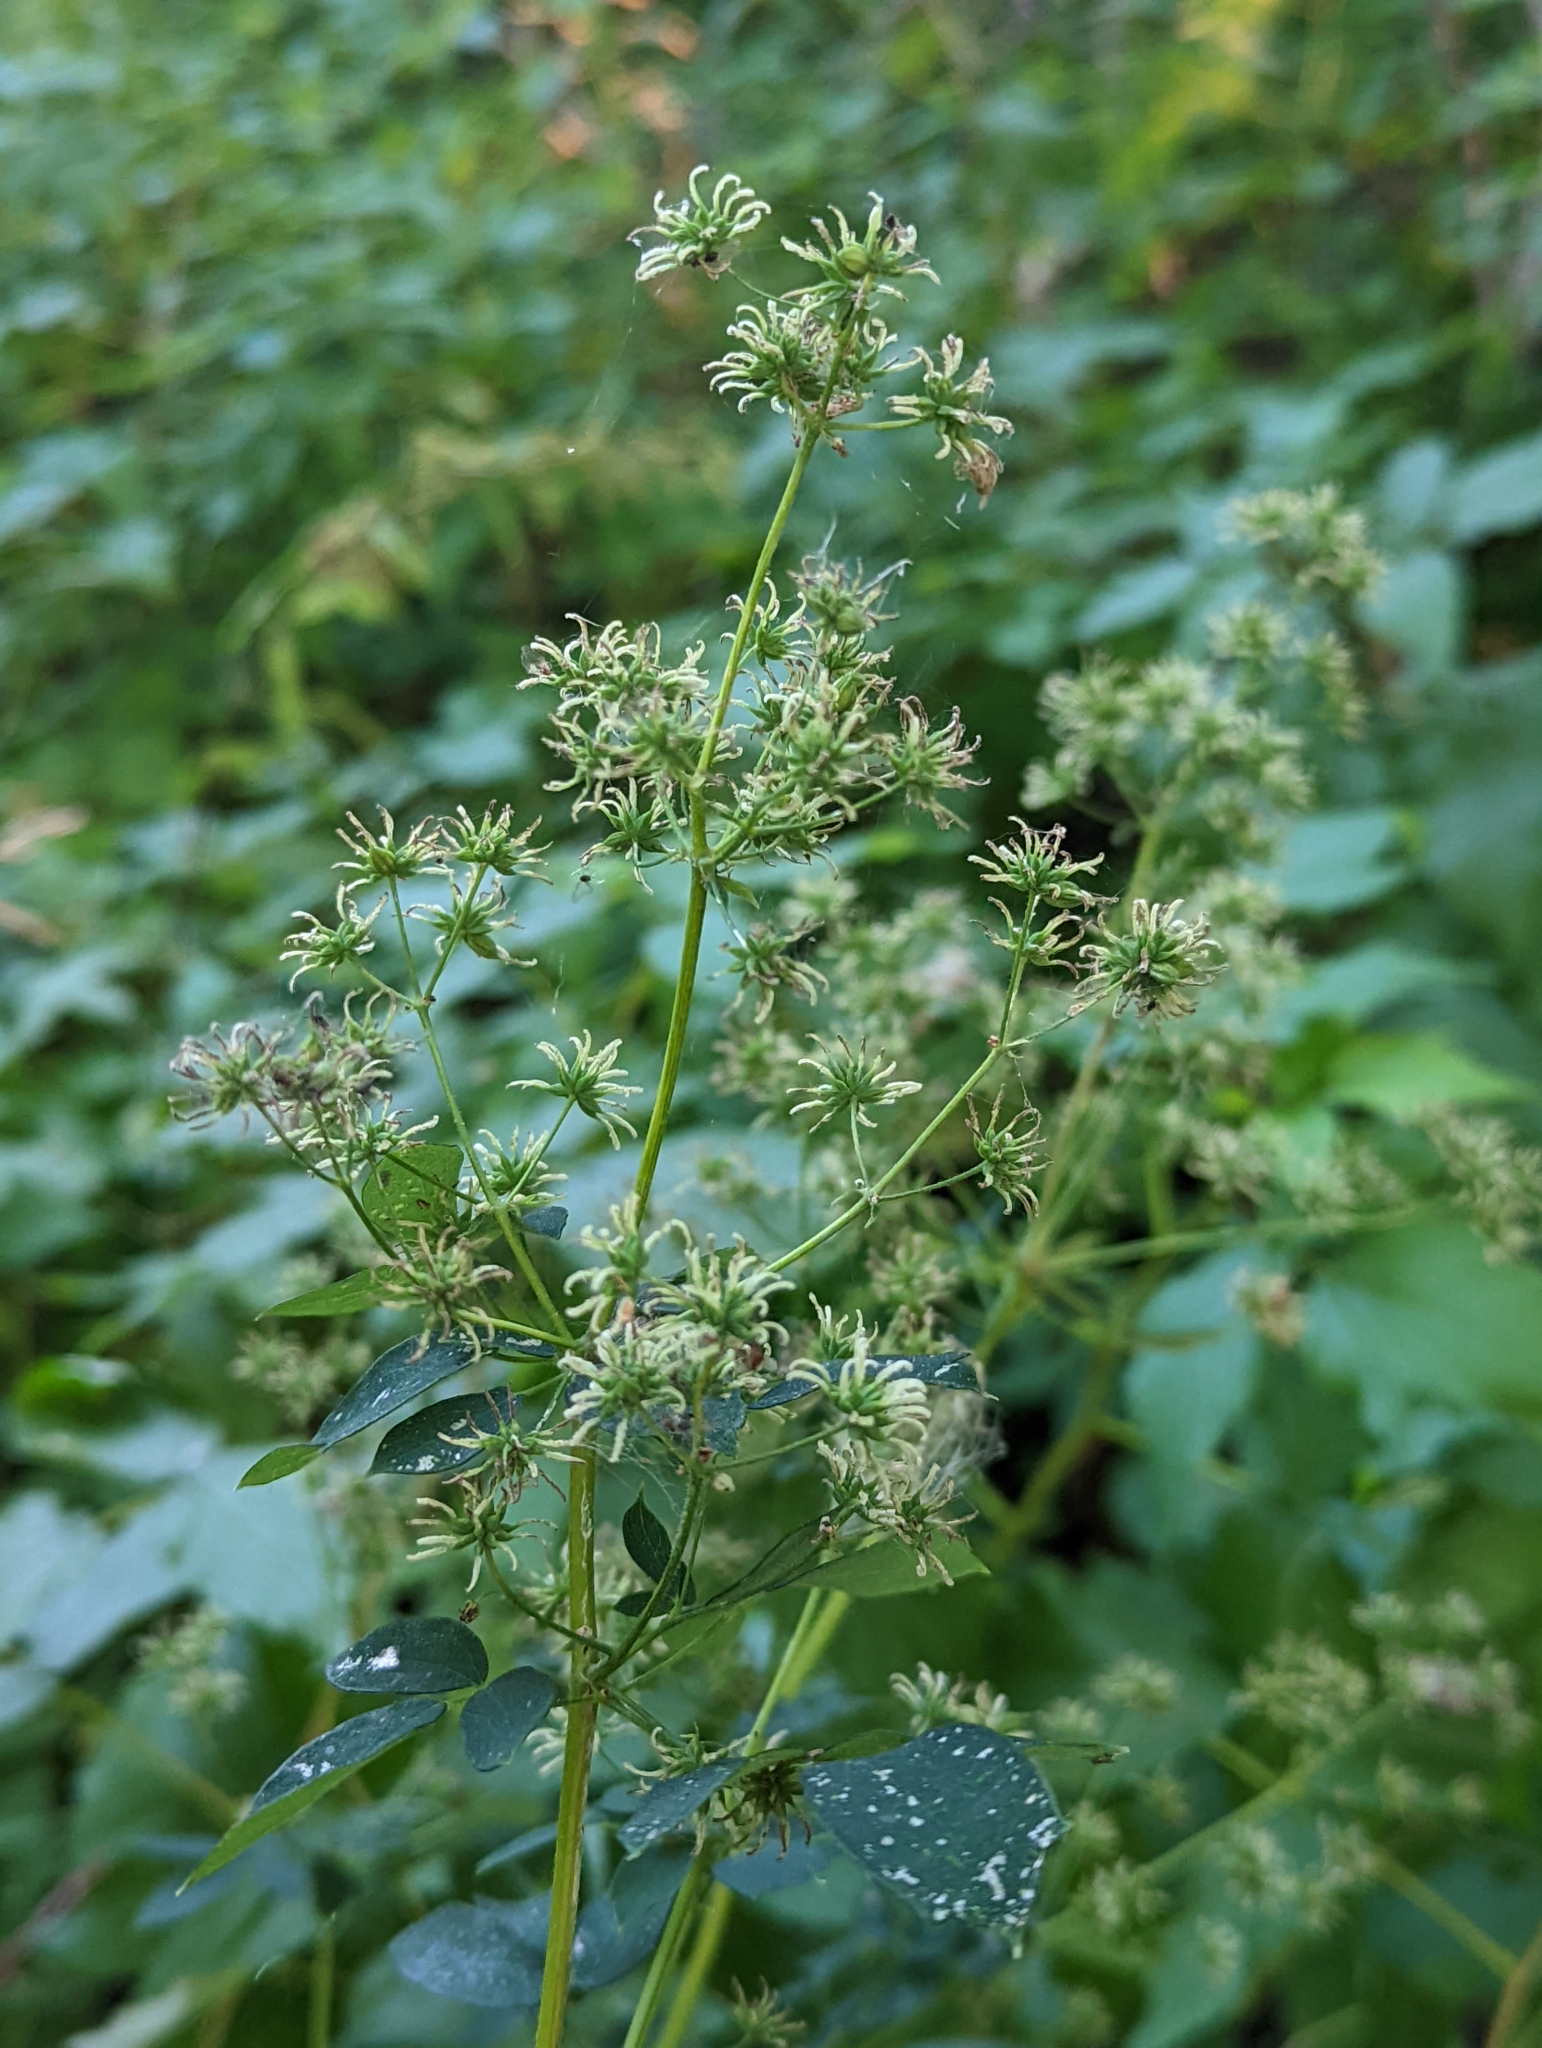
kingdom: Plantae
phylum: Tracheophyta
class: Magnoliopsida
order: Ranunculales
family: Ranunculaceae
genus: Thalictrum
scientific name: Thalictrum dasycarpum
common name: Purple meadow-rue
